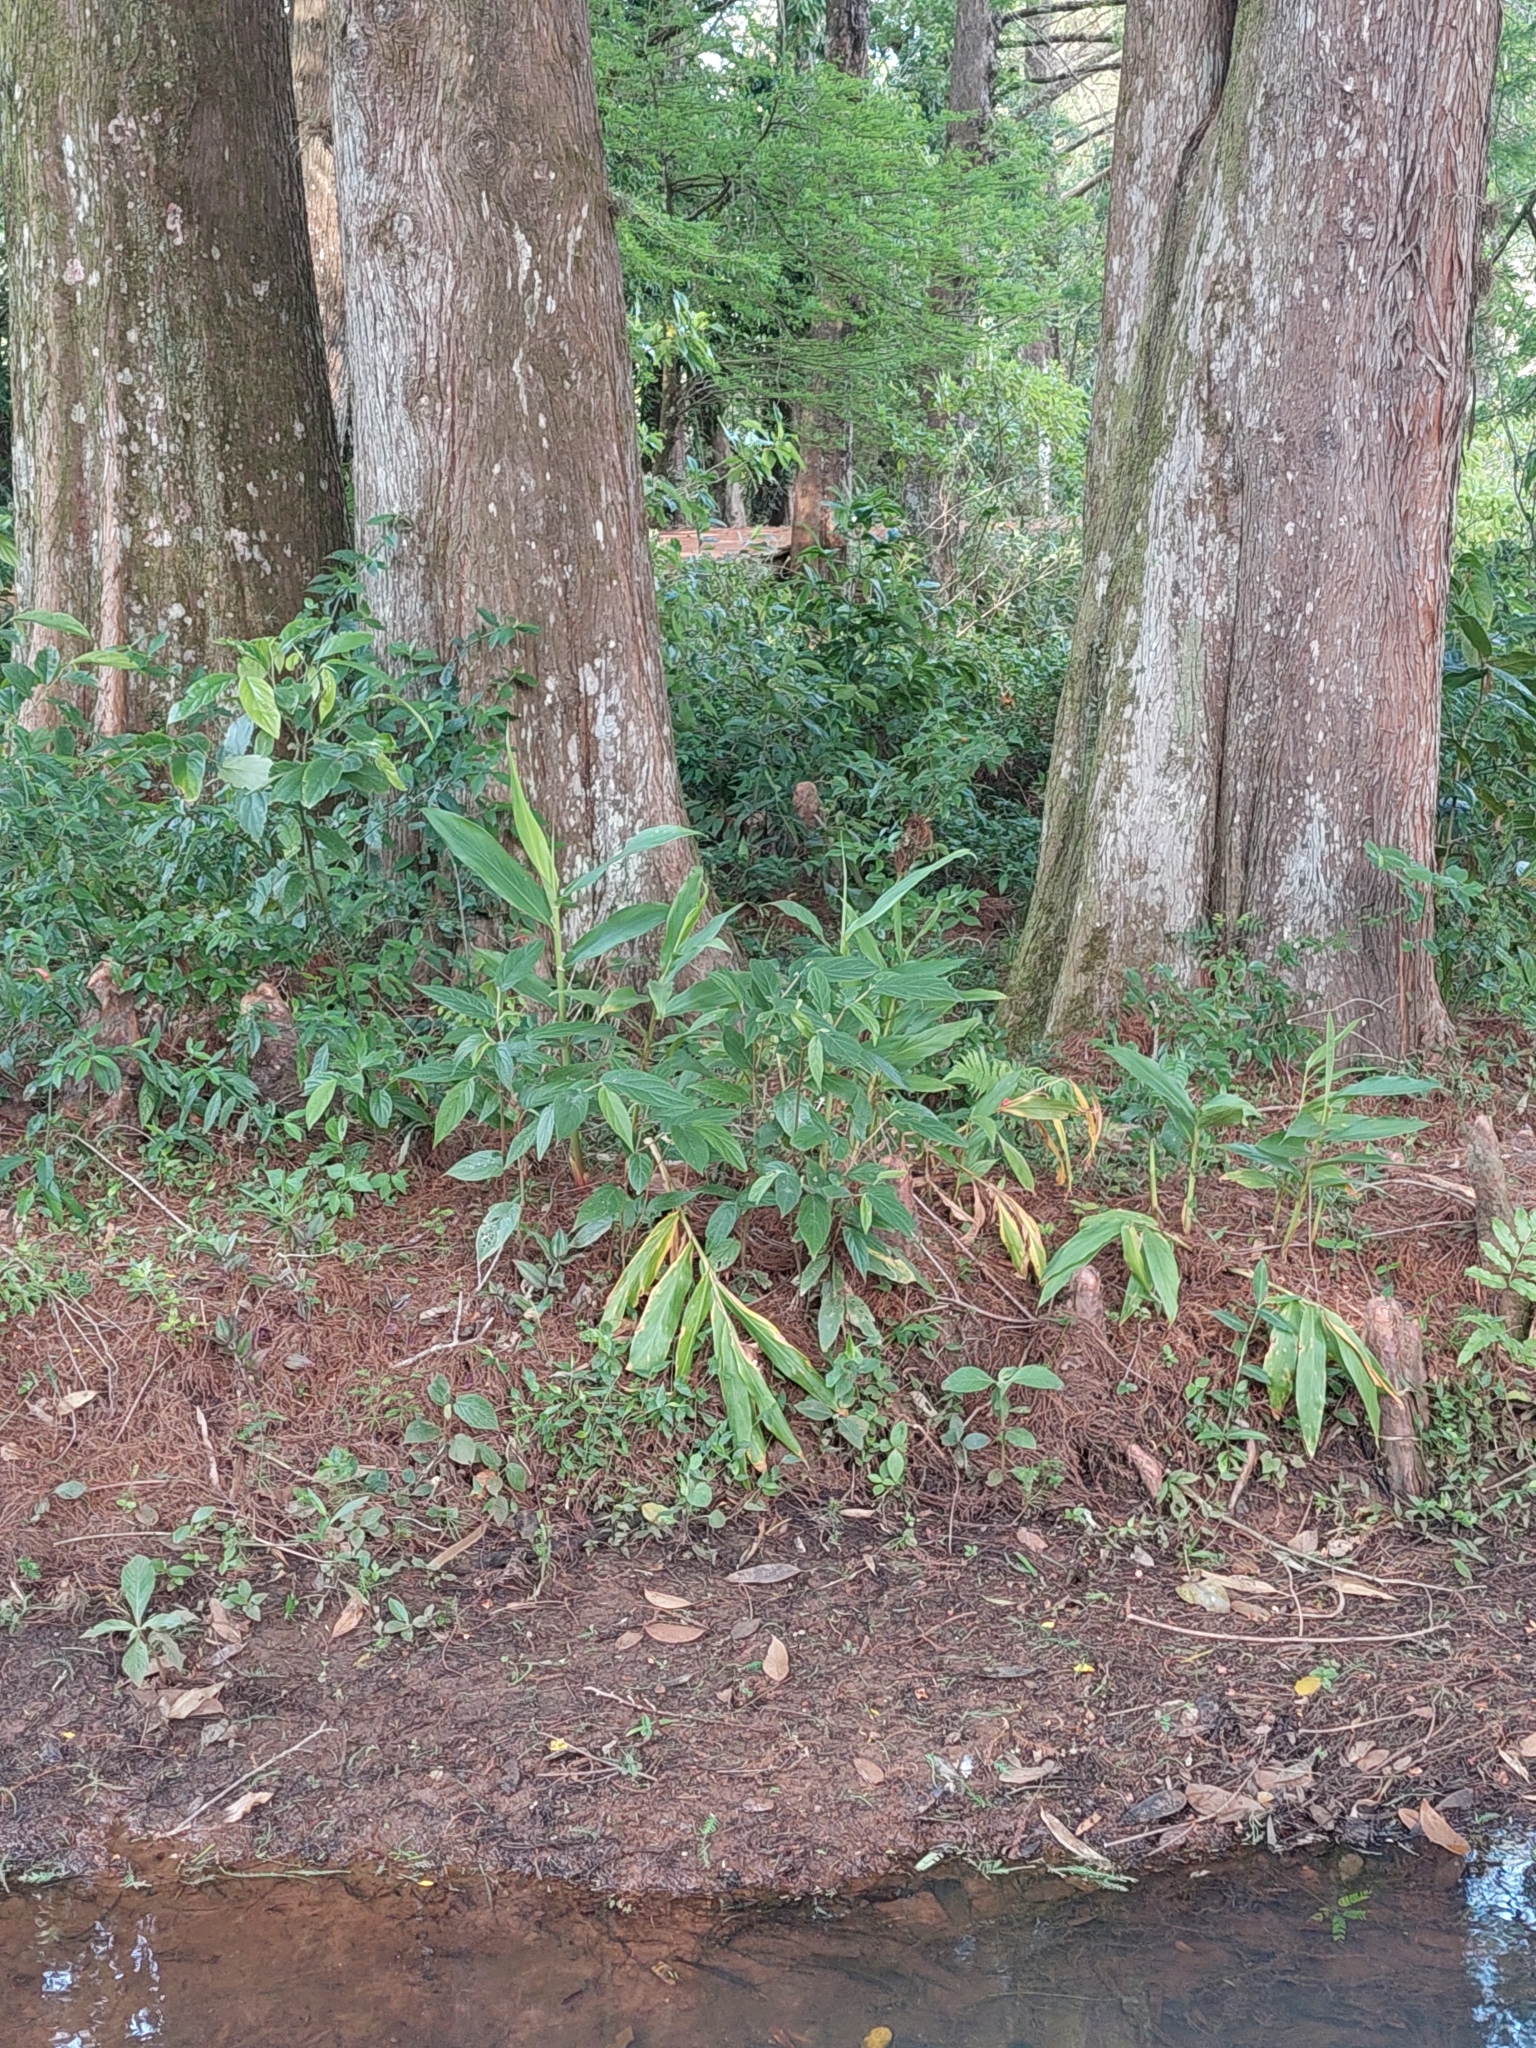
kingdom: Plantae
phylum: Tracheophyta
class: Liliopsida
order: Zingiberales
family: Zingiberaceae
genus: Hedychium
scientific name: Hedychium coronarium
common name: White garland-lily
